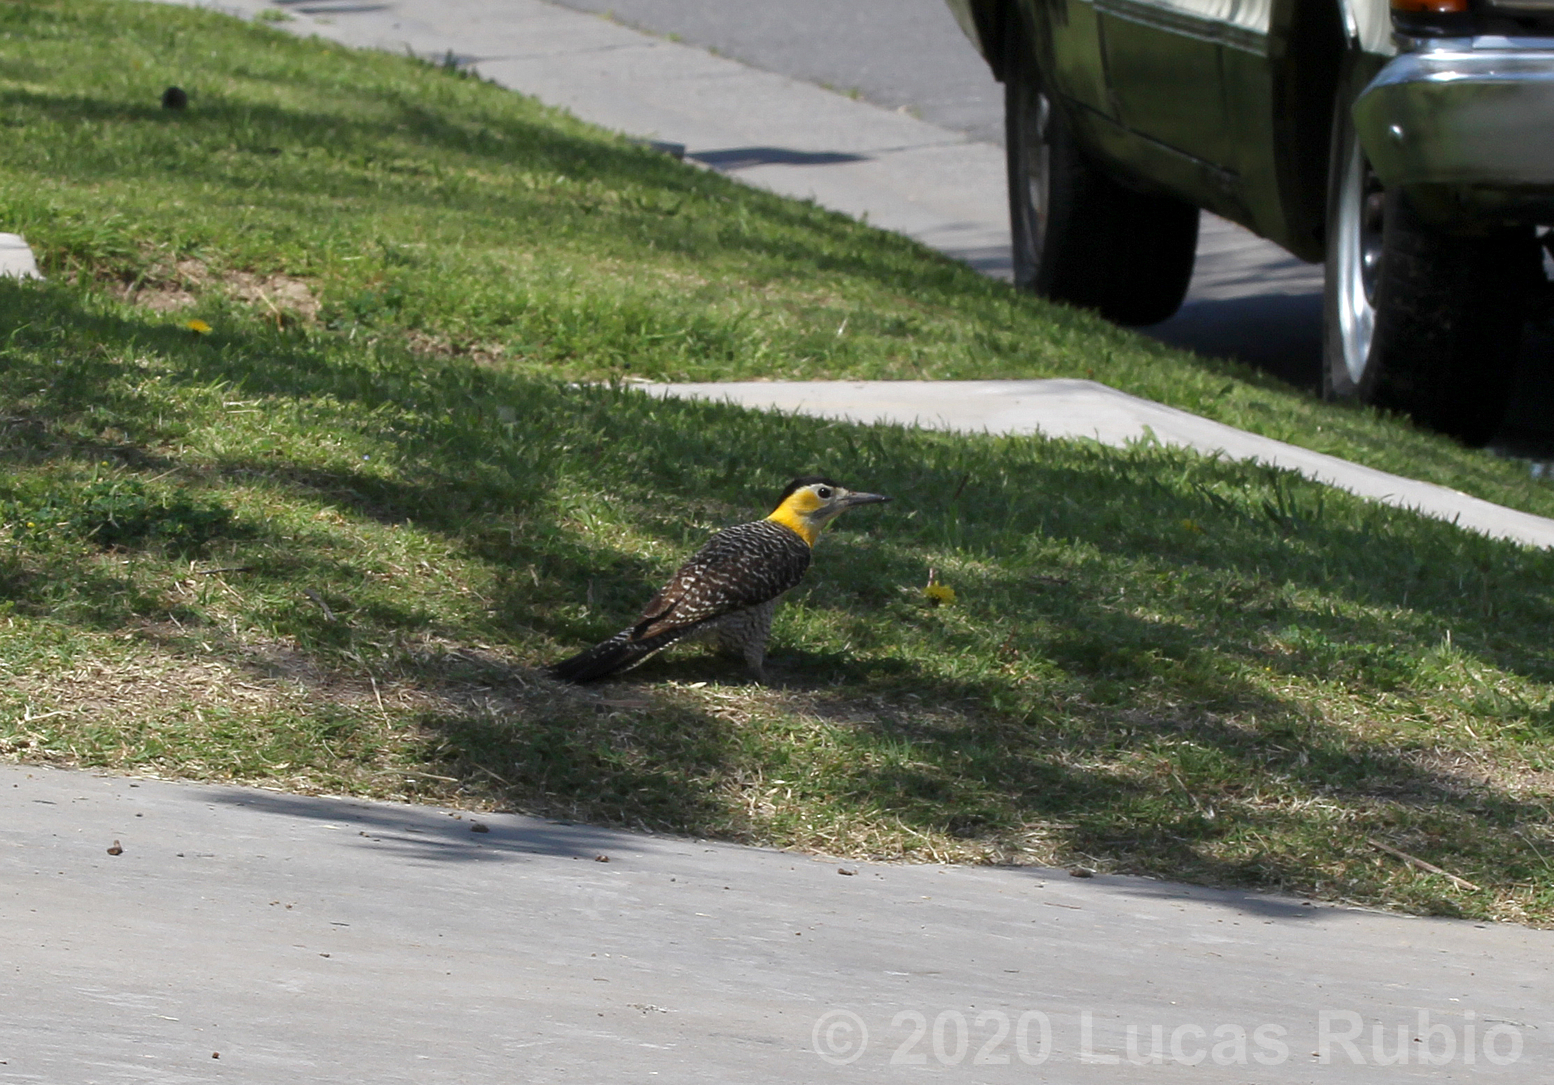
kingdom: Animalia
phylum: Chordata
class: Aves
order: Piciformes
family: Picidae
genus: Colaptes
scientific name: Colaptes campestris
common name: Campo flicker
